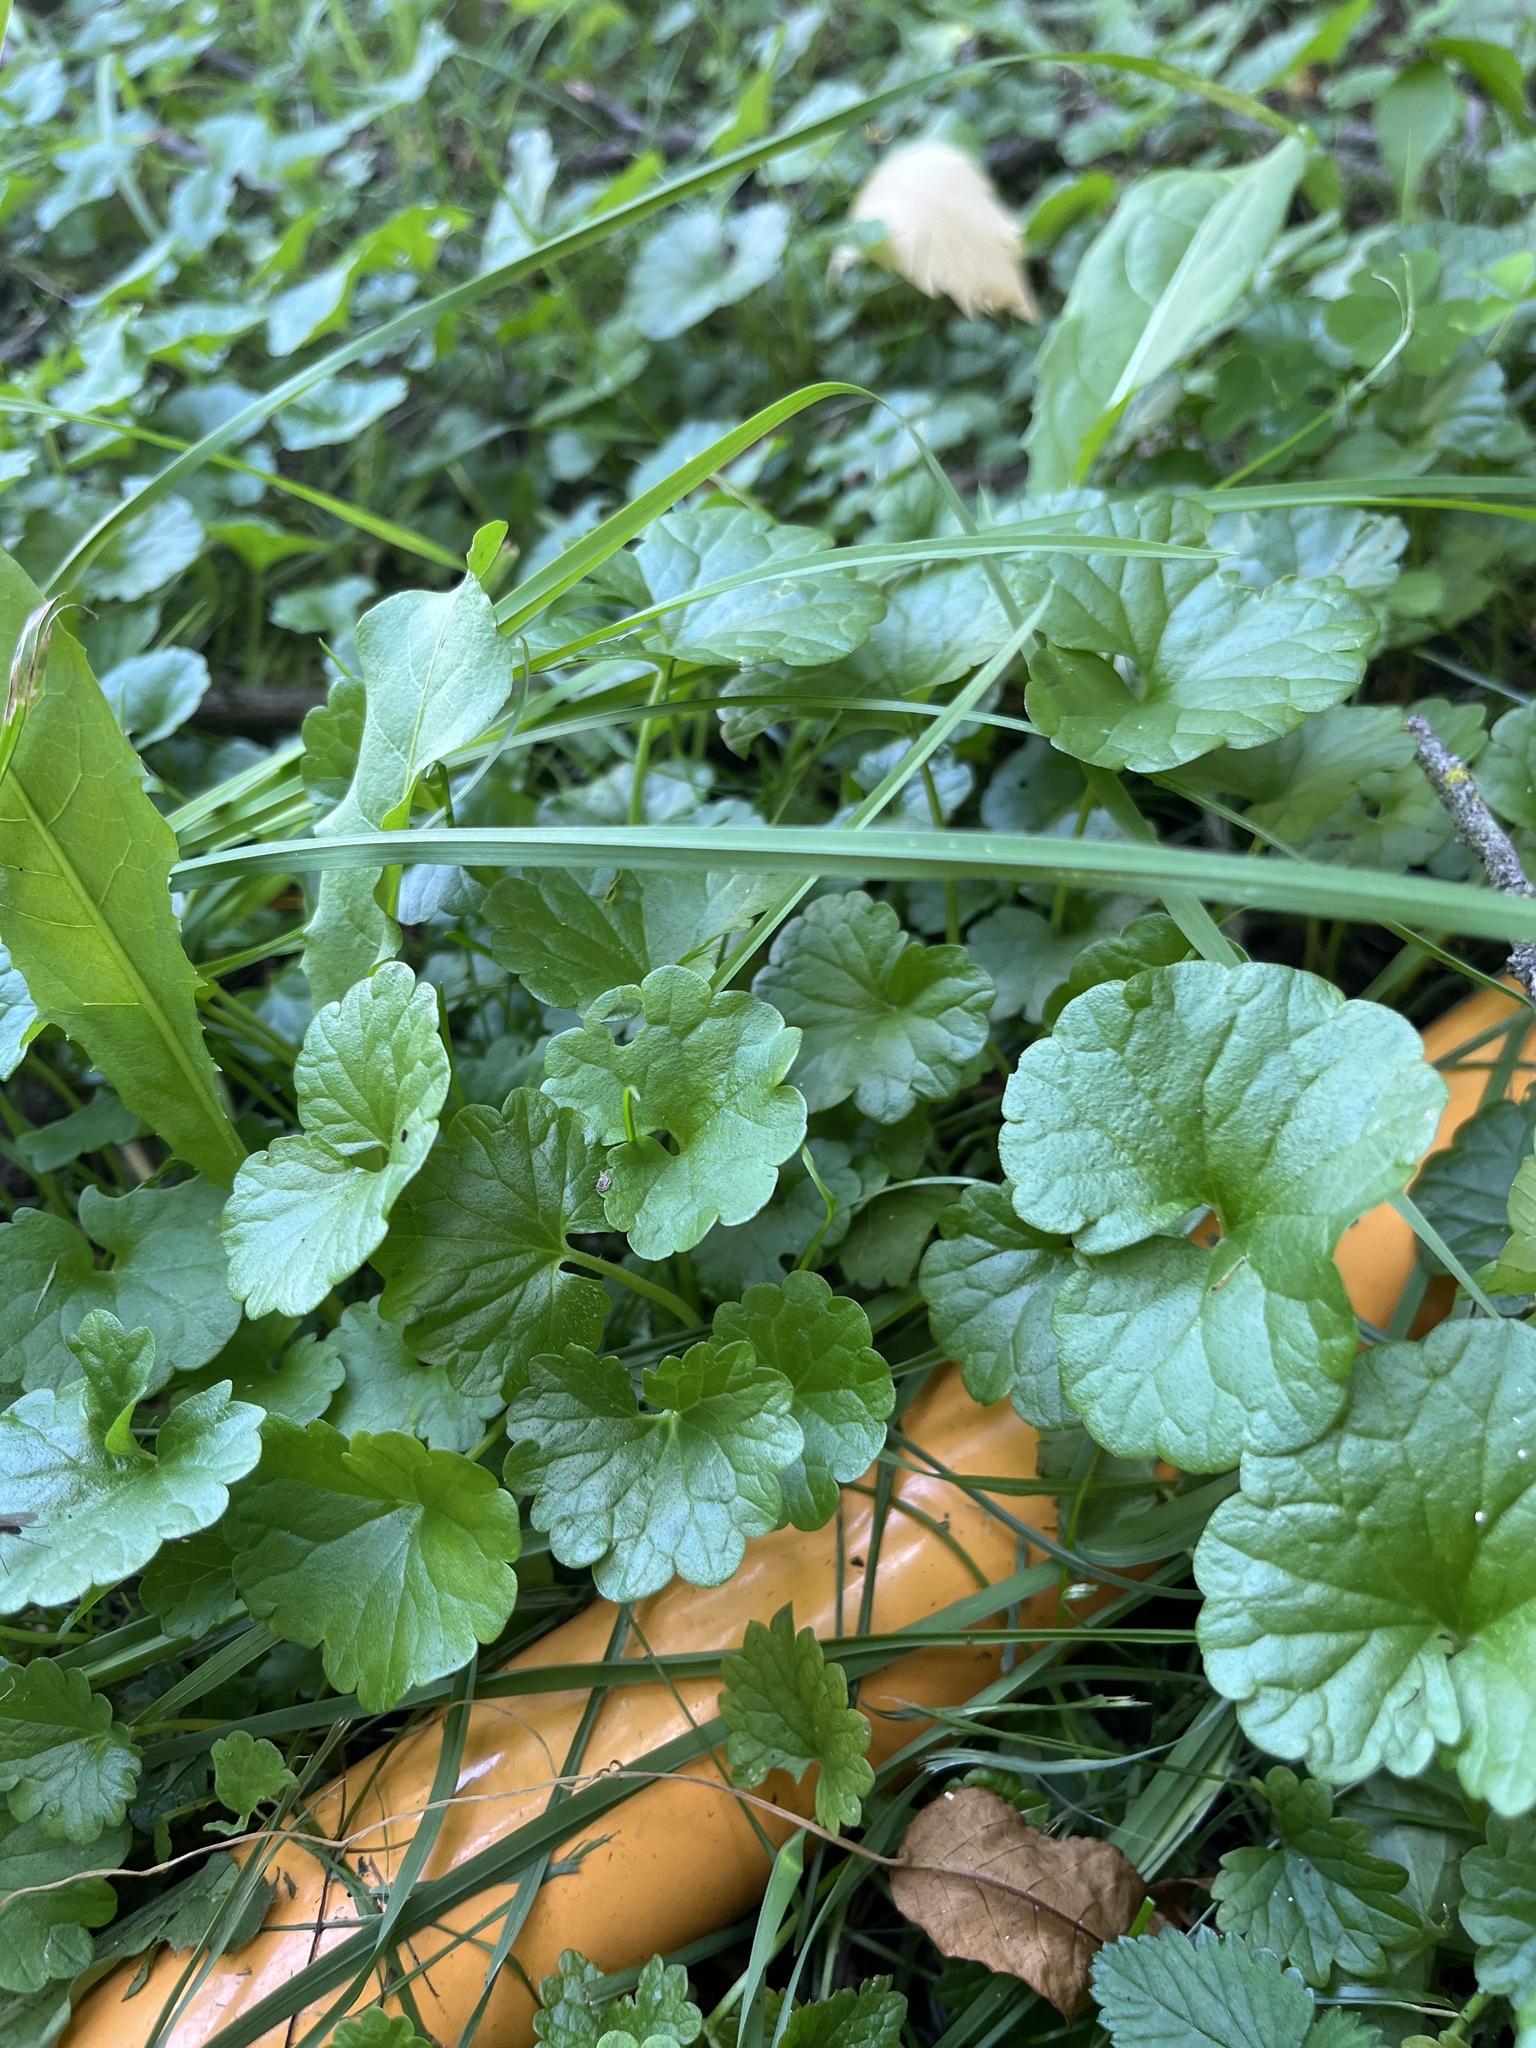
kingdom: Plantae
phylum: Tracheophyta
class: Magnoliopsida
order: Lamiales
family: Lamiaceae
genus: Glechoma
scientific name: Glechoma hederacea
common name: Ground ivy
